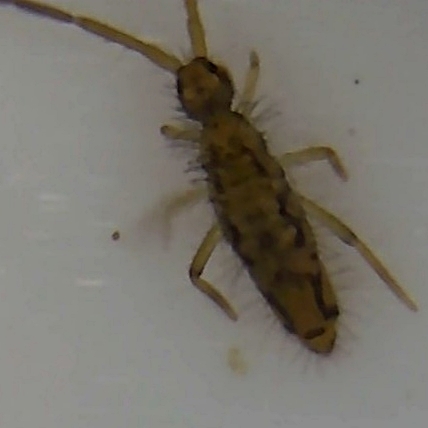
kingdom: Animalia
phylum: Arthropoda
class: Collembola
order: Entomobryomorpha
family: Entomobryidae
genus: Entomobrya
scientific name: Entomobrya intermedia
